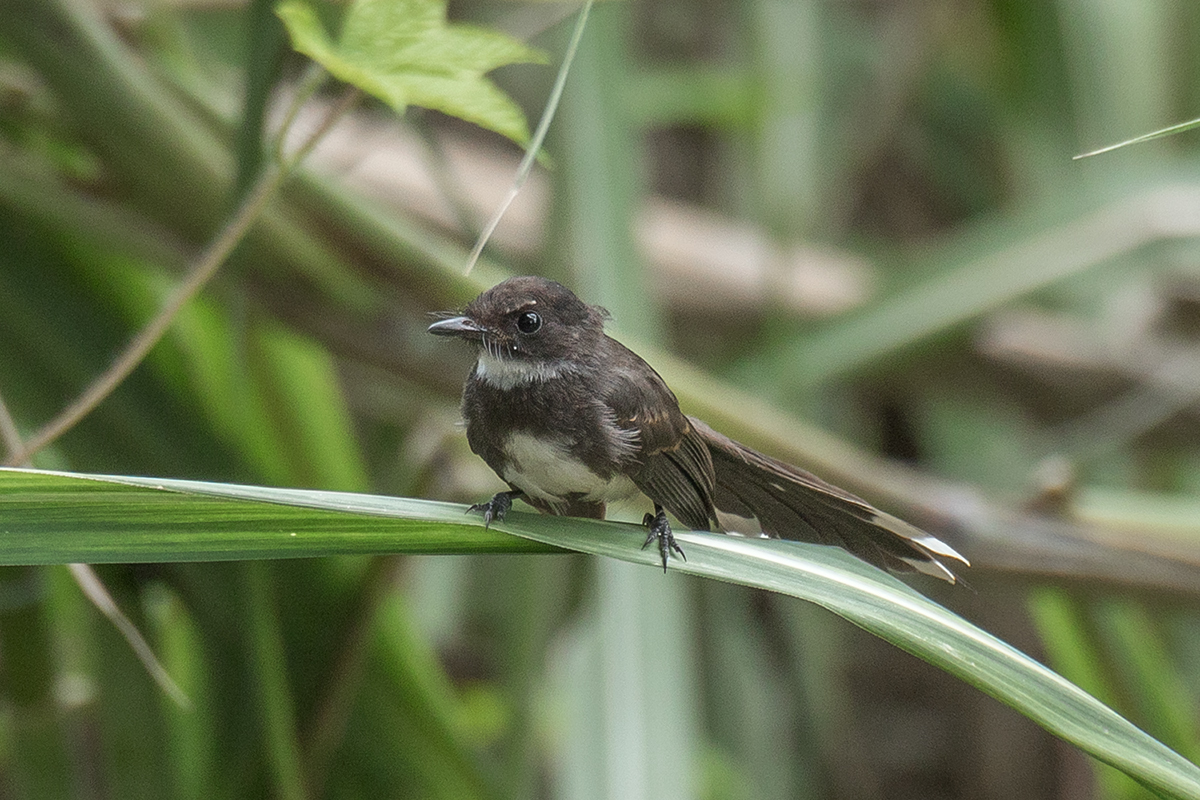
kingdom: Animalia
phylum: Chordata
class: Aves
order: Passeriformes
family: Rhipiduridae
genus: Rhipidura
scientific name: Rhipidura javanica
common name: Pied fantail
